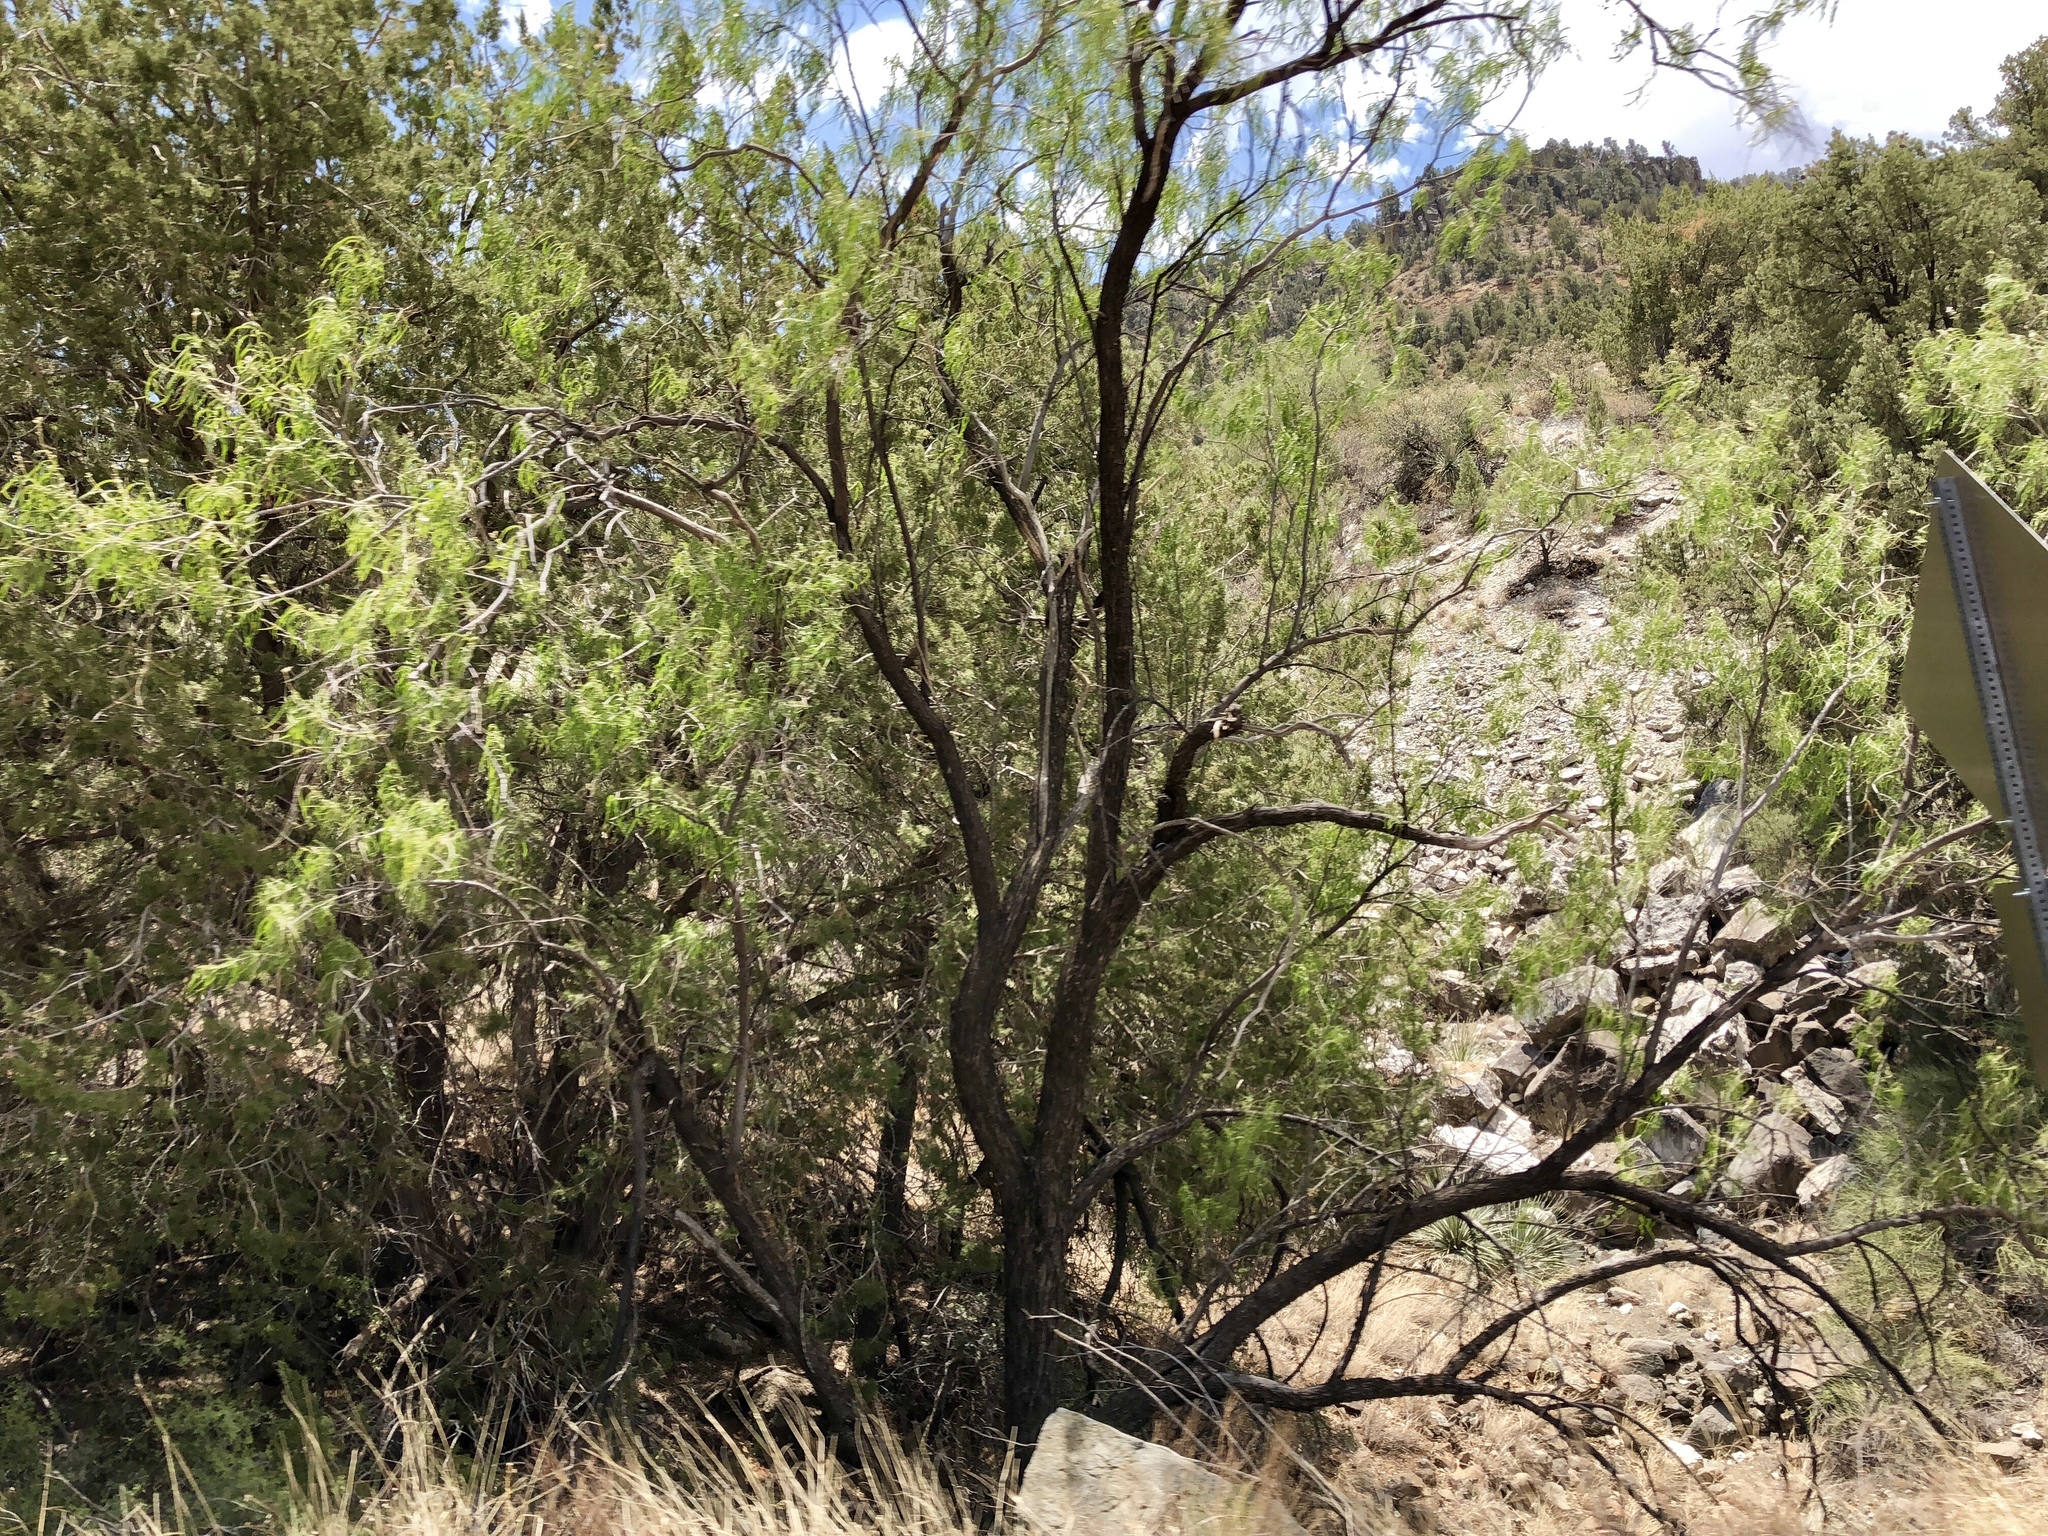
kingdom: Plantae
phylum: Tracheophyta
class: Magnoliopsida
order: Lamiales
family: Bignoniaceae
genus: Chilopsis
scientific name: Chilopsis linearis
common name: Desert-willow
